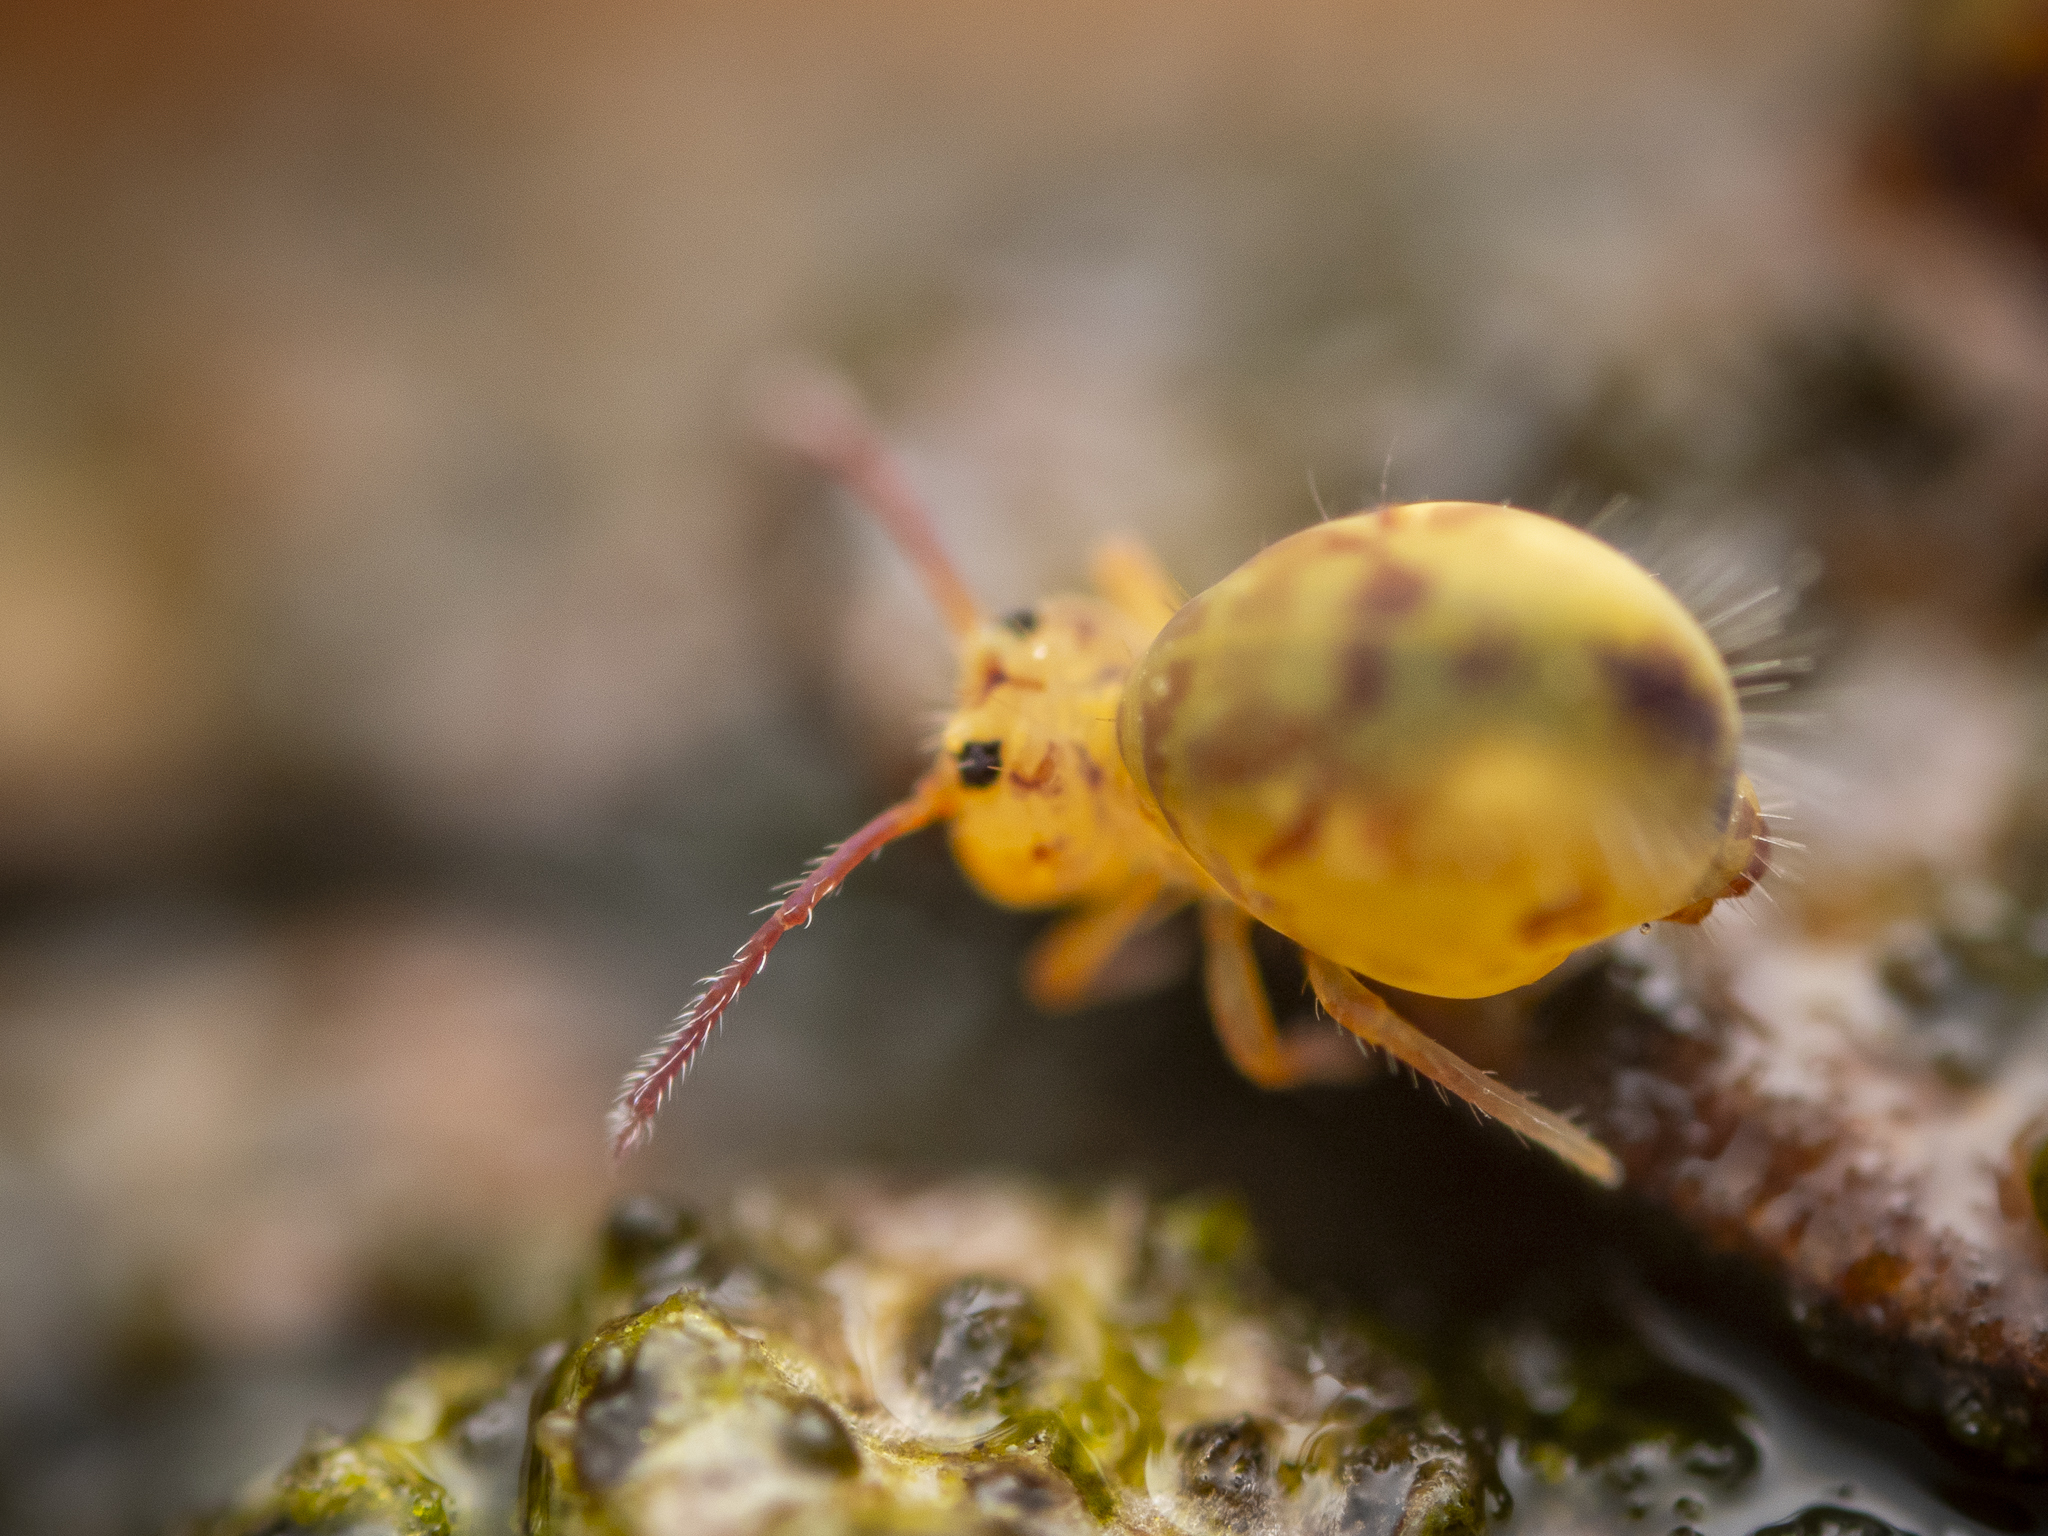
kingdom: Animalia
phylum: Arthropoda
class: Collembola
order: Symphypleona
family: Dicyrtomidae
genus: Dicyrtomina
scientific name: Dicyrtomina ornata
